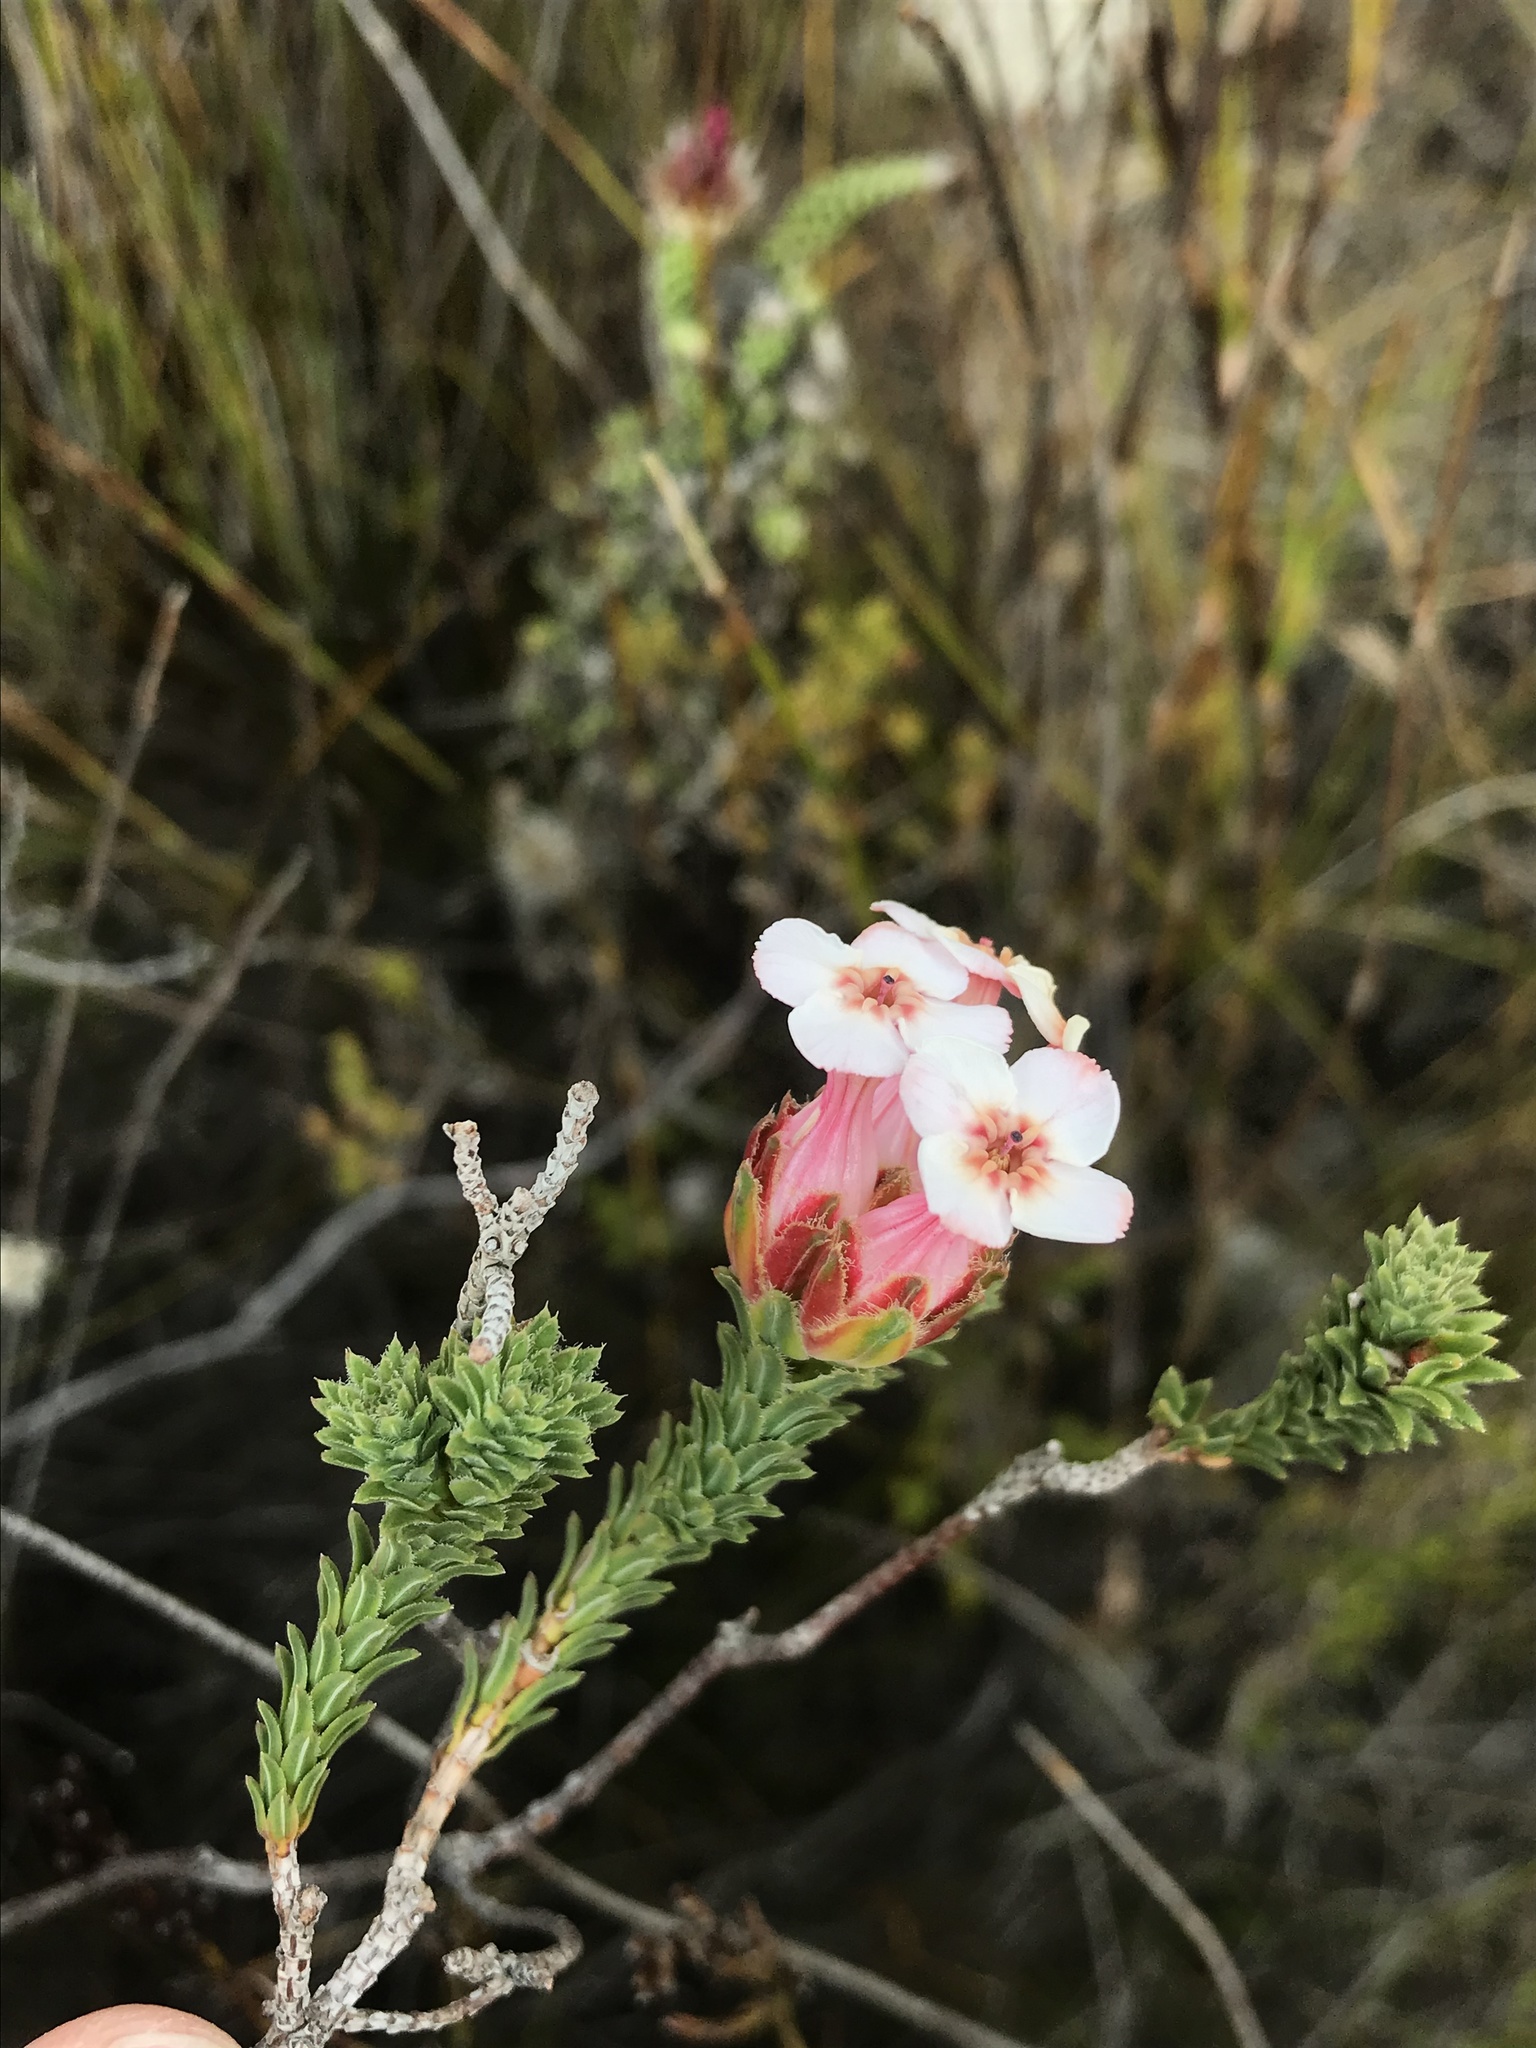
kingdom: Plantae
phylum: Tracheophyta
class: Magnoliopsida
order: Ericales
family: Ericaceae
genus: Erica
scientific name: Erica ampullacea
